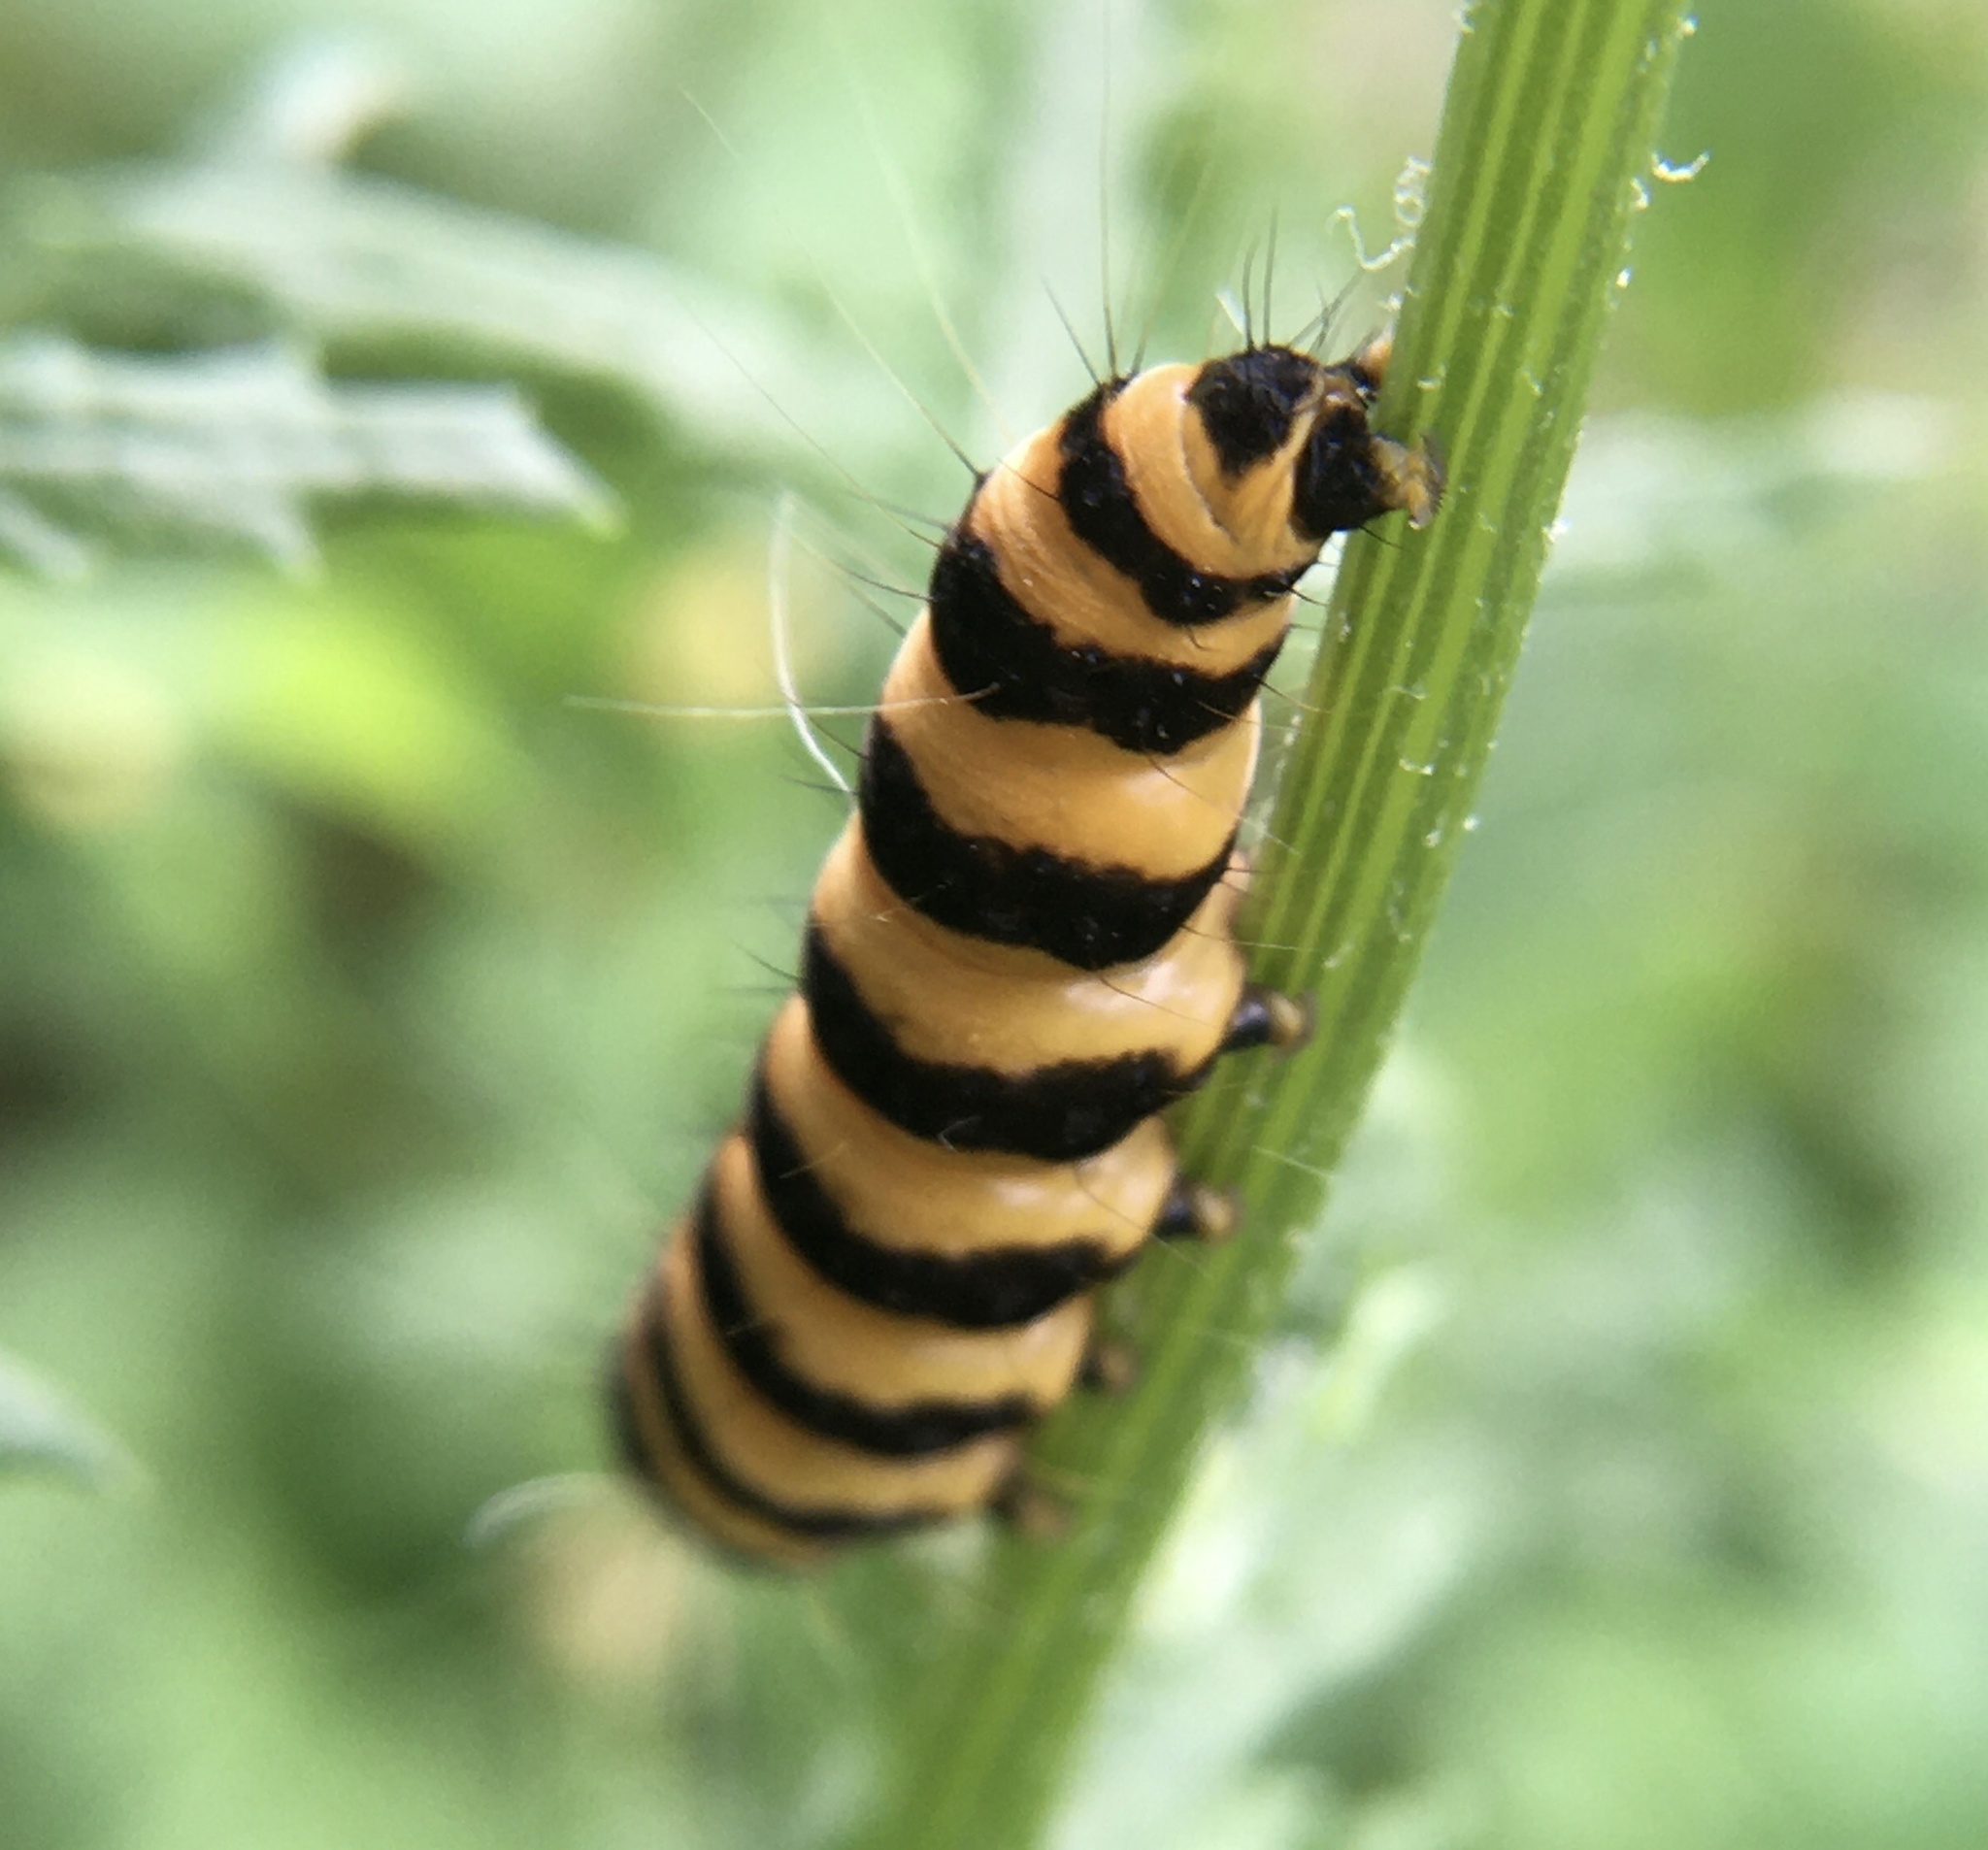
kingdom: Animalia
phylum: Arthropoda
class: Insecta
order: Lepidoptera
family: Erebidae
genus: Tyria
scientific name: Tyria jacobaeae
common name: Cinnabar
